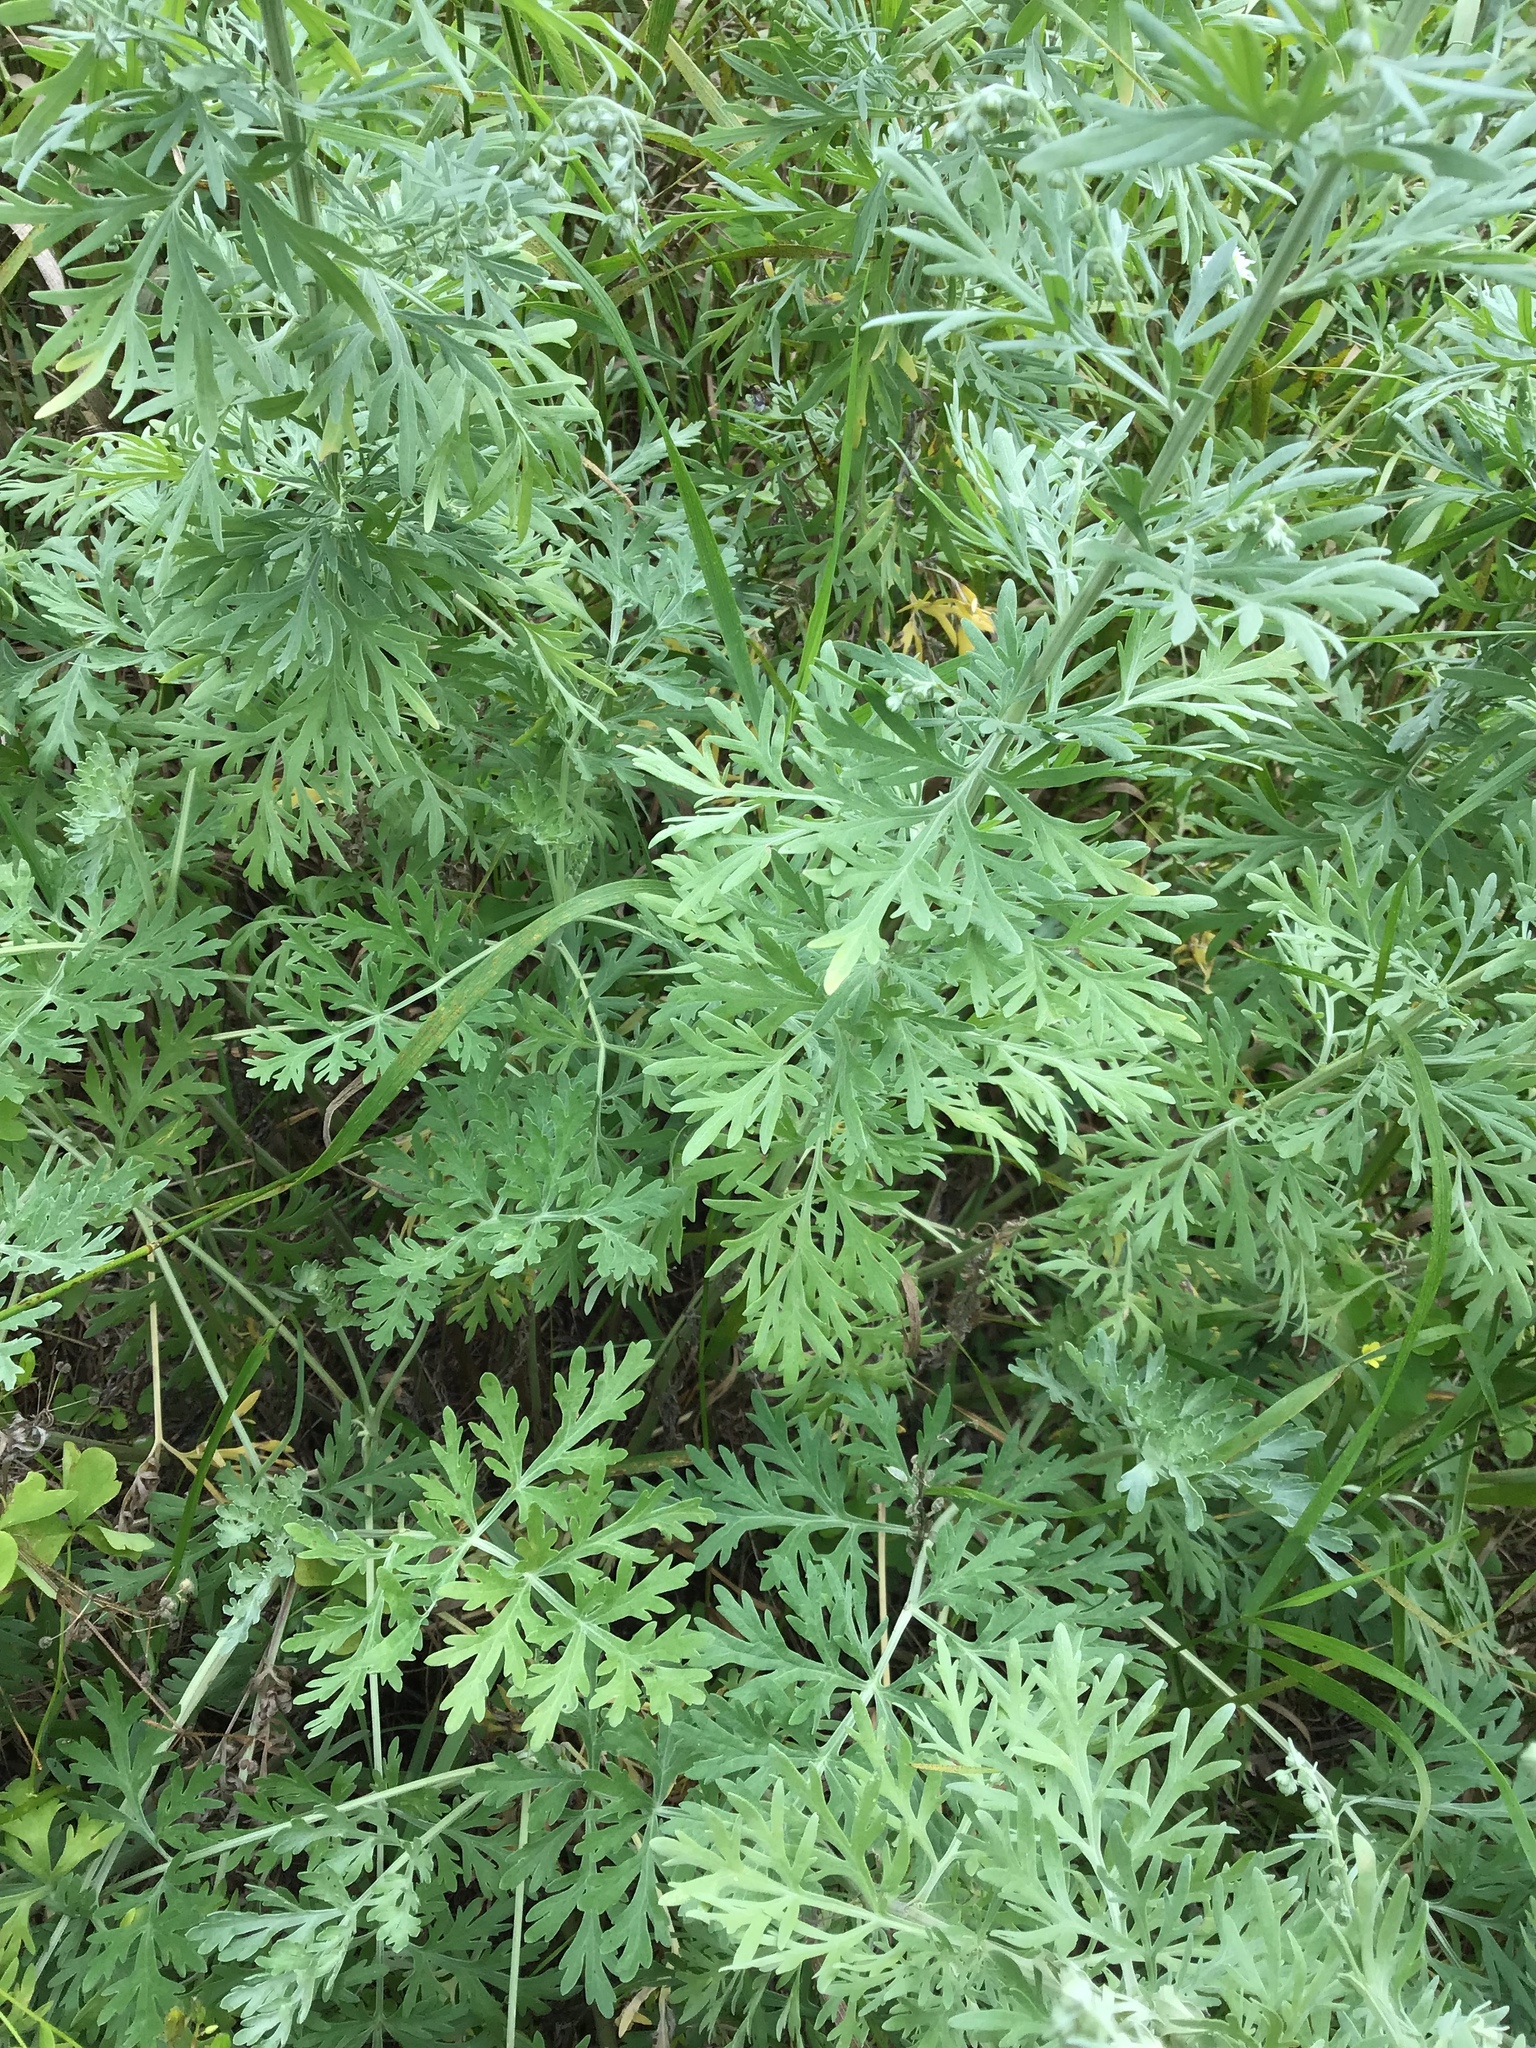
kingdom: Plantae
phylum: Tracheophyta
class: Magnoliopsida
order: Asterales
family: Asteraceae
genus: Artemisia
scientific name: Artemisia absinthium
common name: Wormwood
